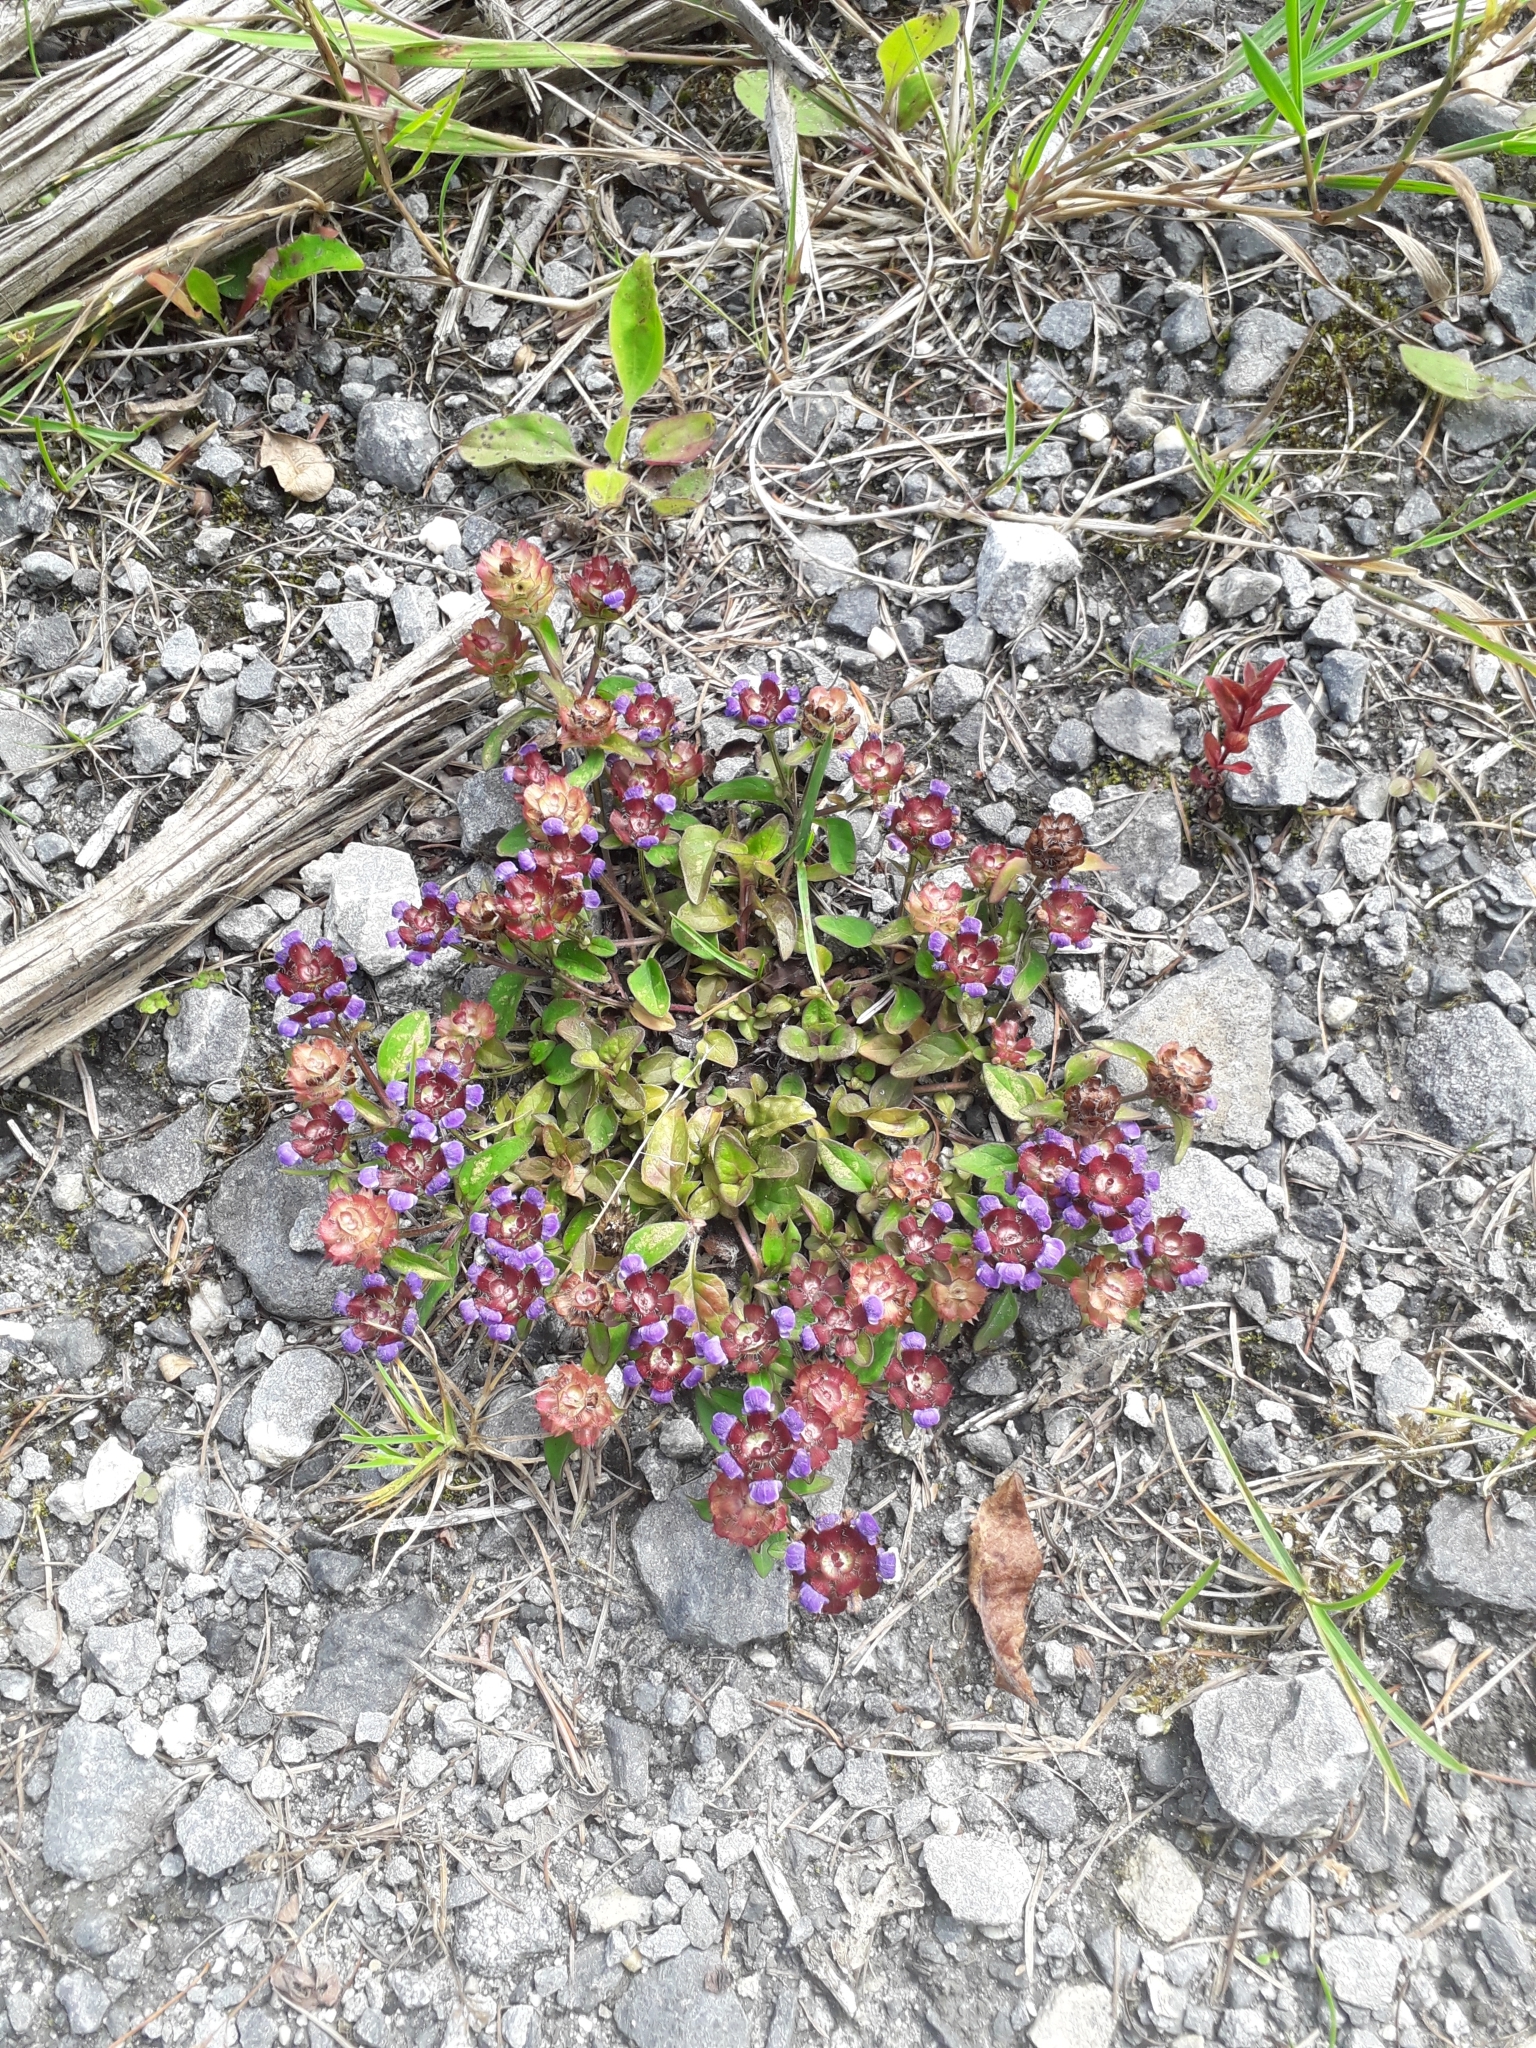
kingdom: Plantae
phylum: Tracheophyta
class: Magnoliopsida
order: Lamiales
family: Lamiaceae
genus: Prunella
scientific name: Prunella vulgaris
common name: Heal-all
